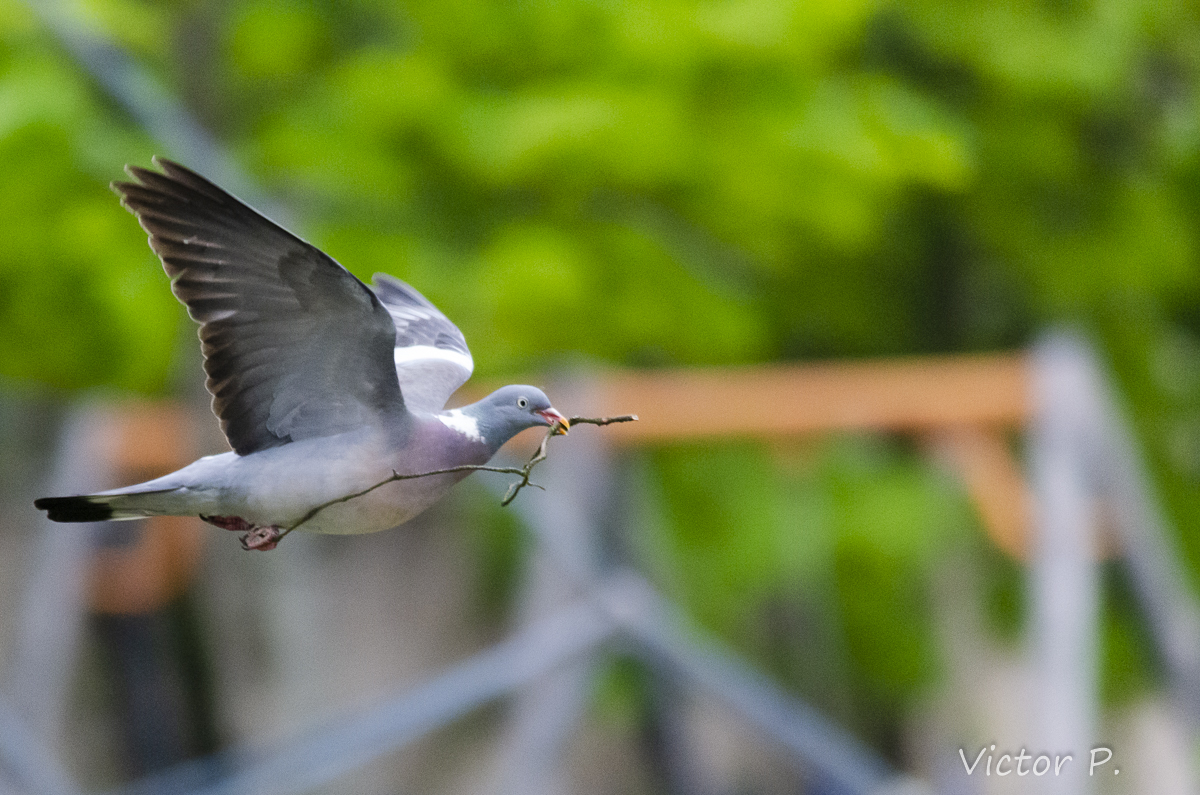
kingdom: Animalia
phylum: Chordata
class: Aves
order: Columbiformes
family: Columbidae
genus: Columba
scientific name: Columba palumbus
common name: Common wood pigeon
